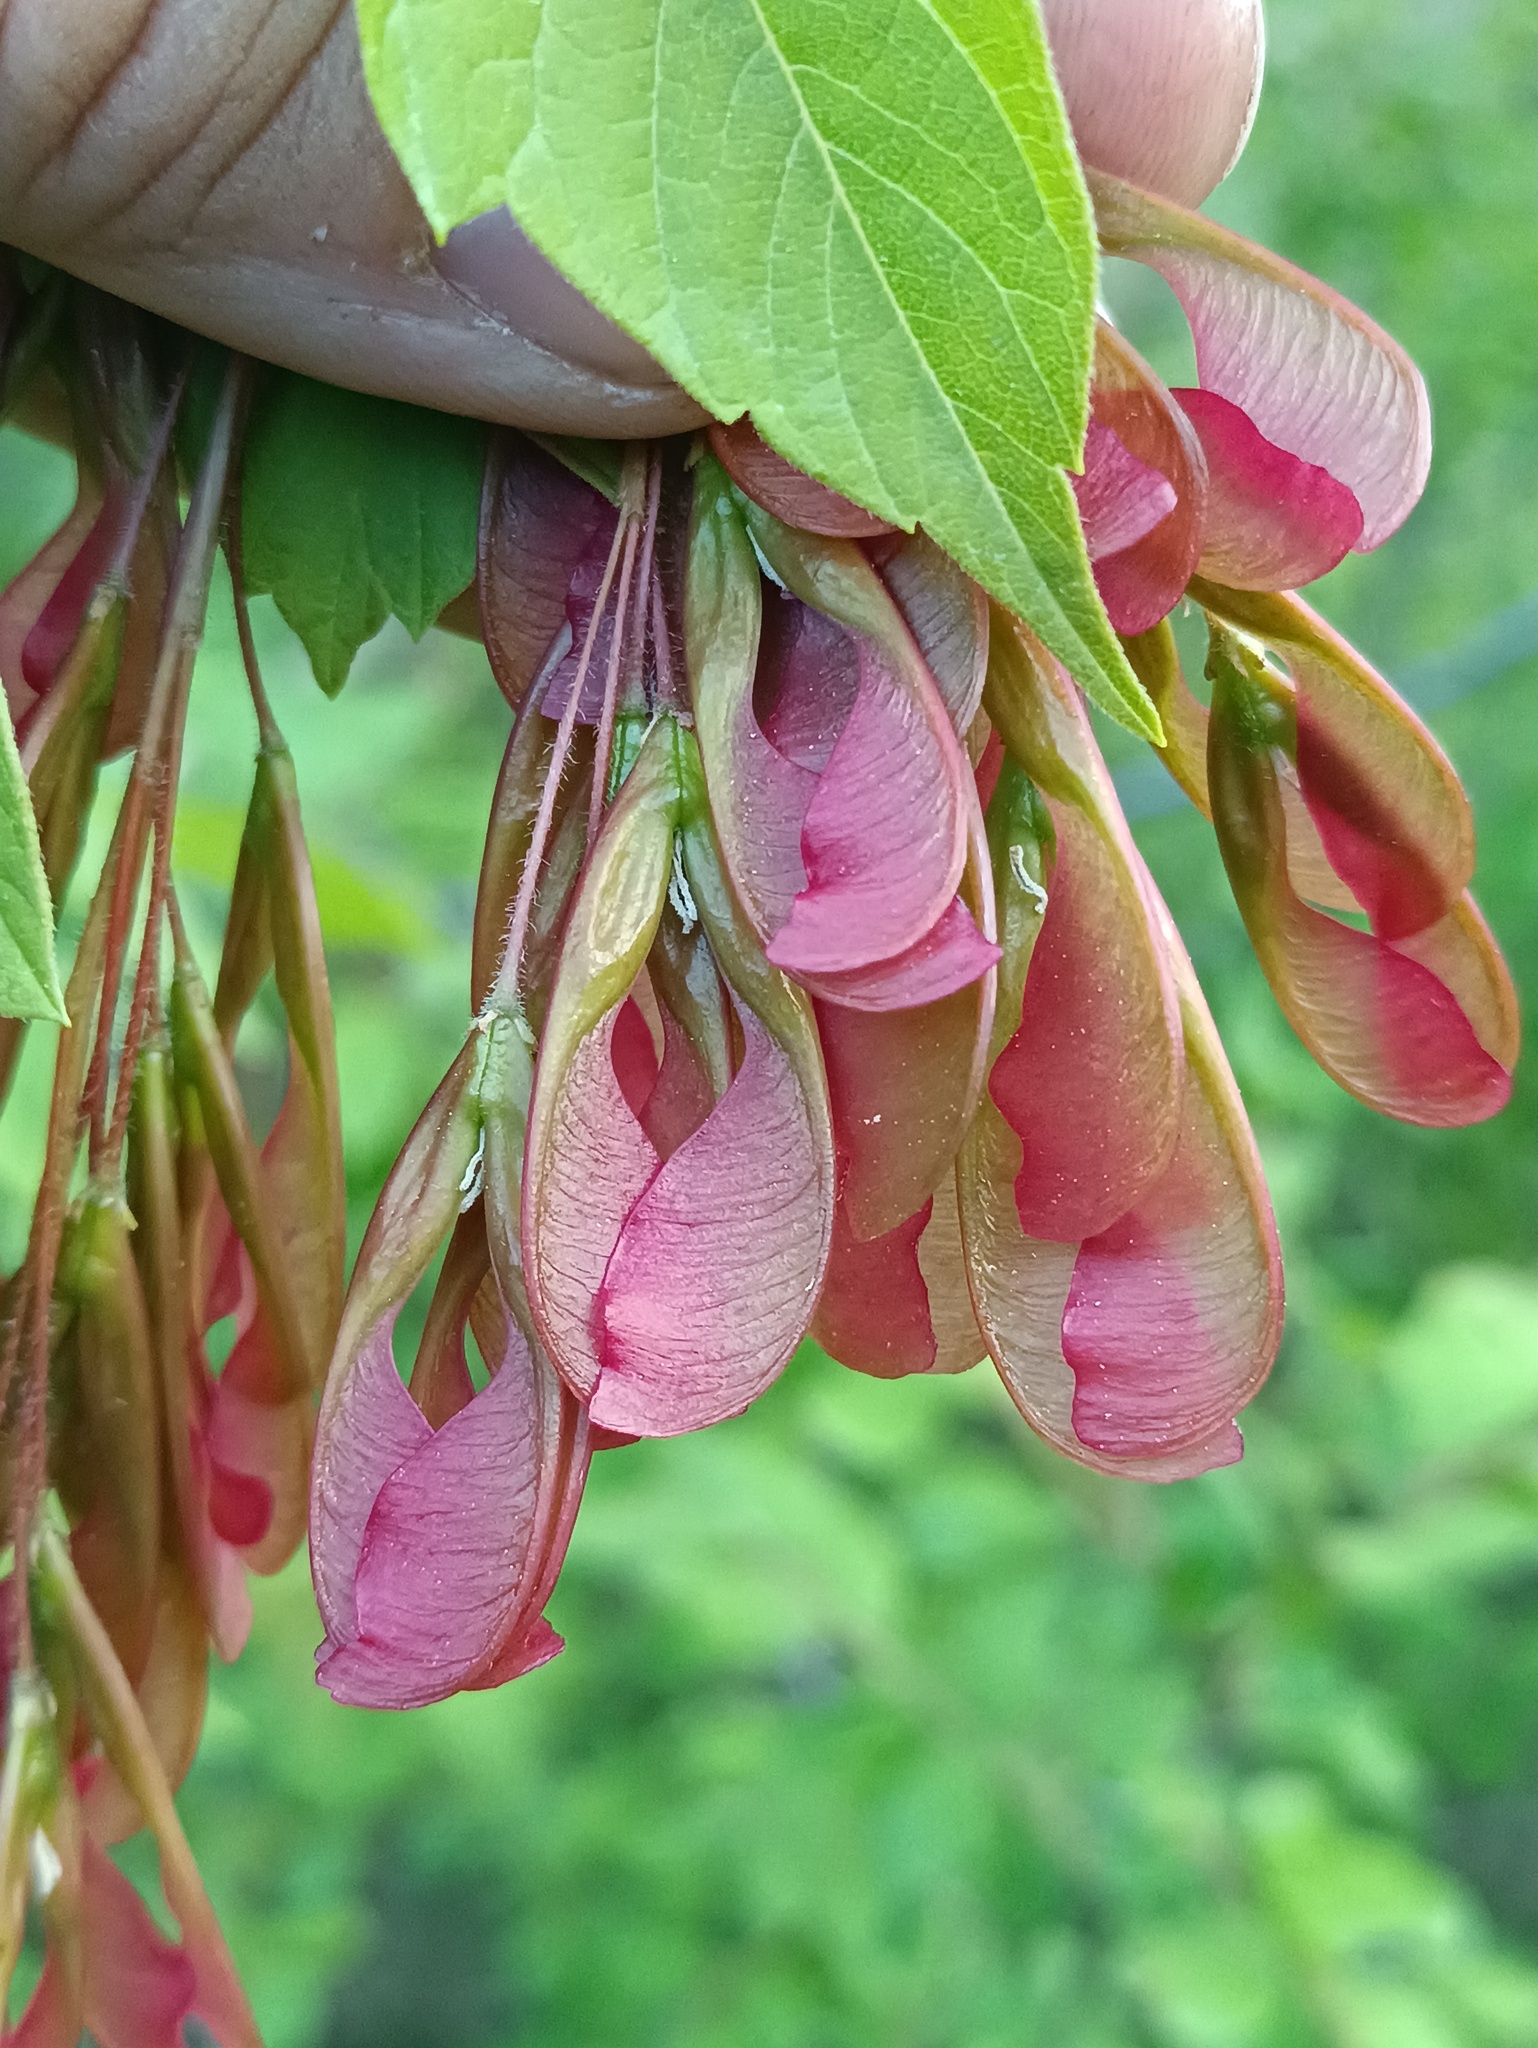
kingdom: Plantae
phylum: Tracheophyta
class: Magnoliopsida
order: Sapindales
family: Sapindaceae
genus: Acer
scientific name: Acer negundo
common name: Ashleaf maple
